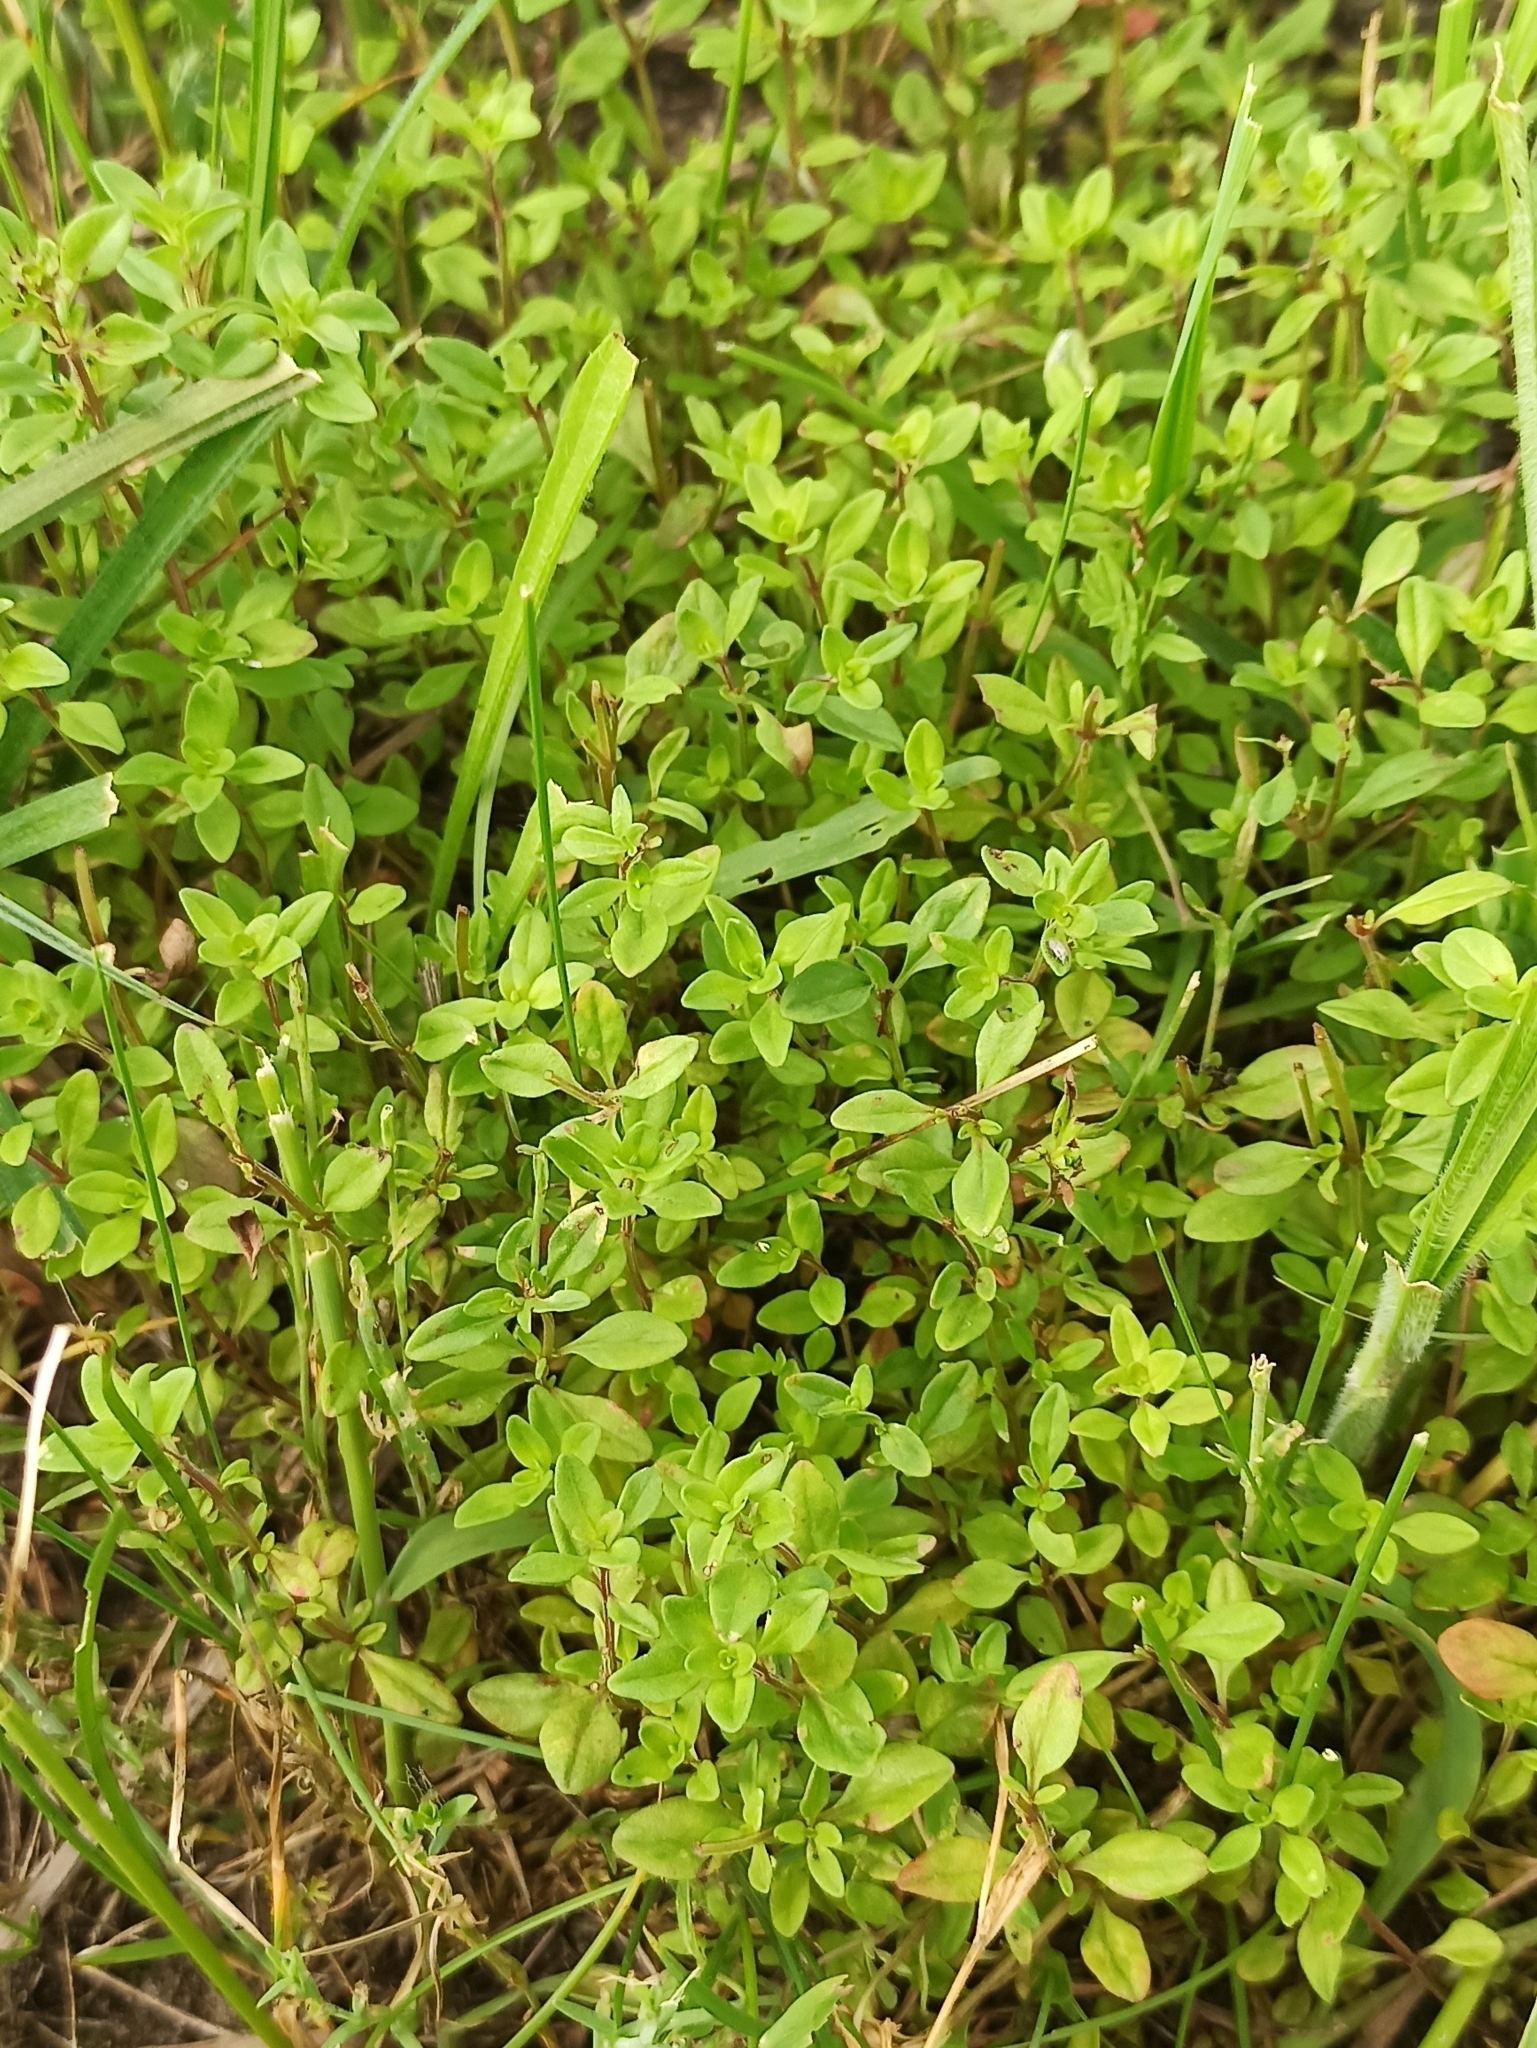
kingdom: Plantae
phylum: Tracheophyta
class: Magnoliopsida
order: Lamiales
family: Lamiaceae
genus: Thymus
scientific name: Thymus pulegioides
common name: Large thyme
